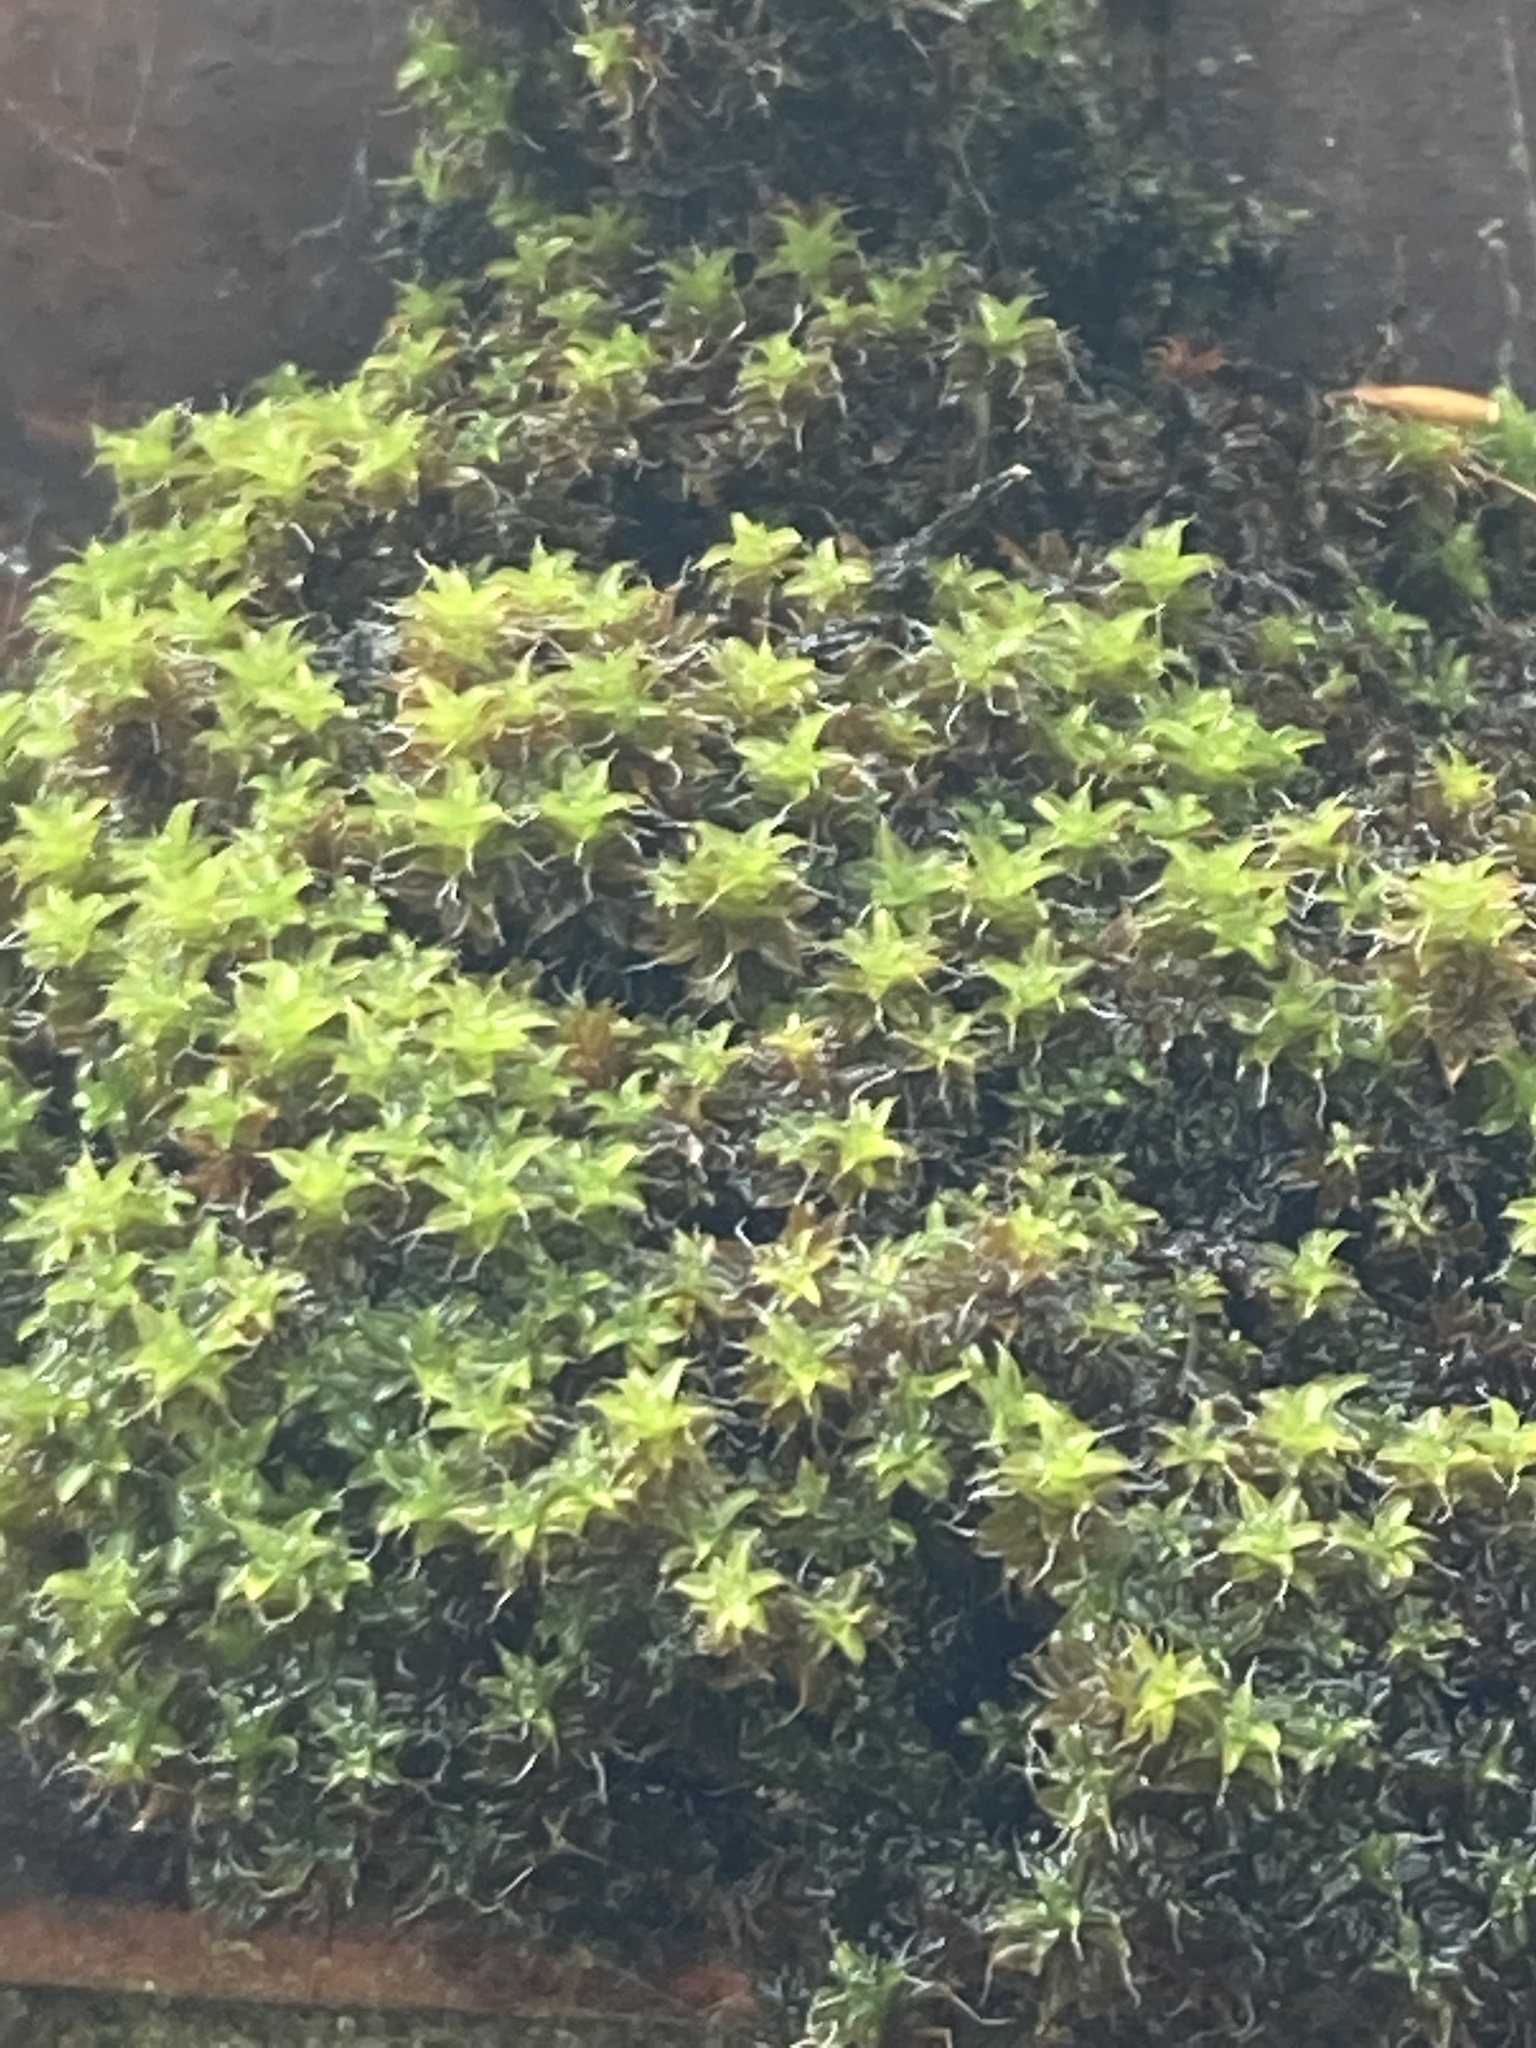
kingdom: Plantae
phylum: Bryophyta
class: Bryopsida
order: Pottiales
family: Pottiaceae
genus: Syntrichia
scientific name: Syntrichia ruralis
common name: Sidewalk screw moss
